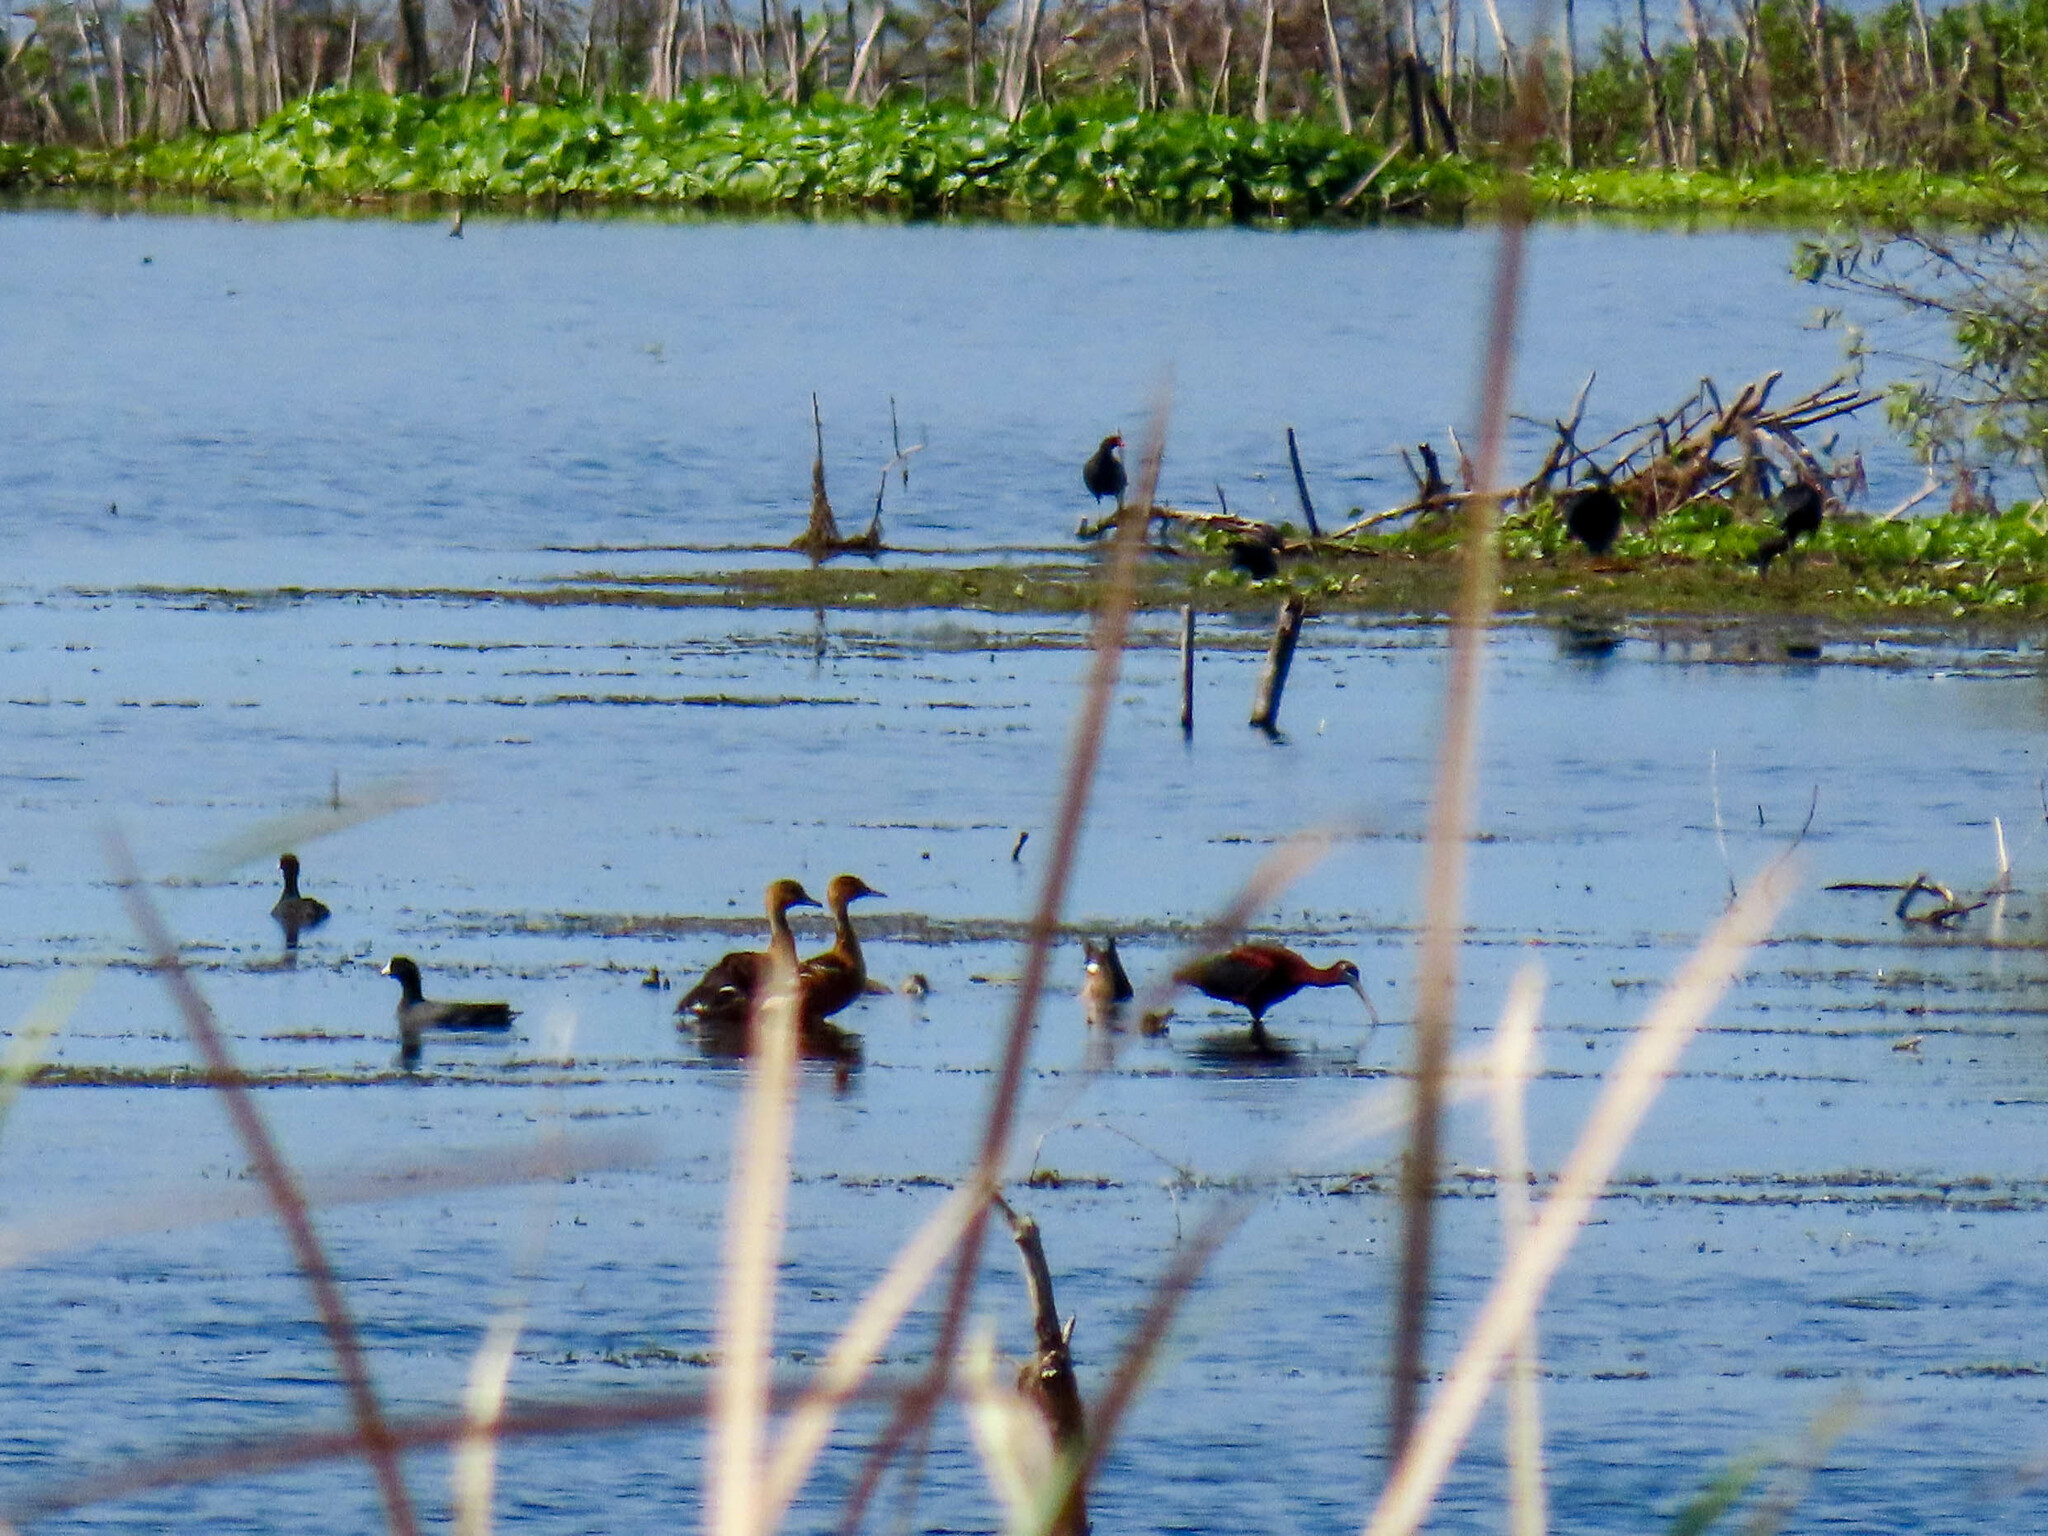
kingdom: Animalia
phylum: Chordata
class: Aves
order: Anseriformes
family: Anatidae
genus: Dendrocygna
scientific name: Dendrocygna bicolor
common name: Fulvous whistling duck
